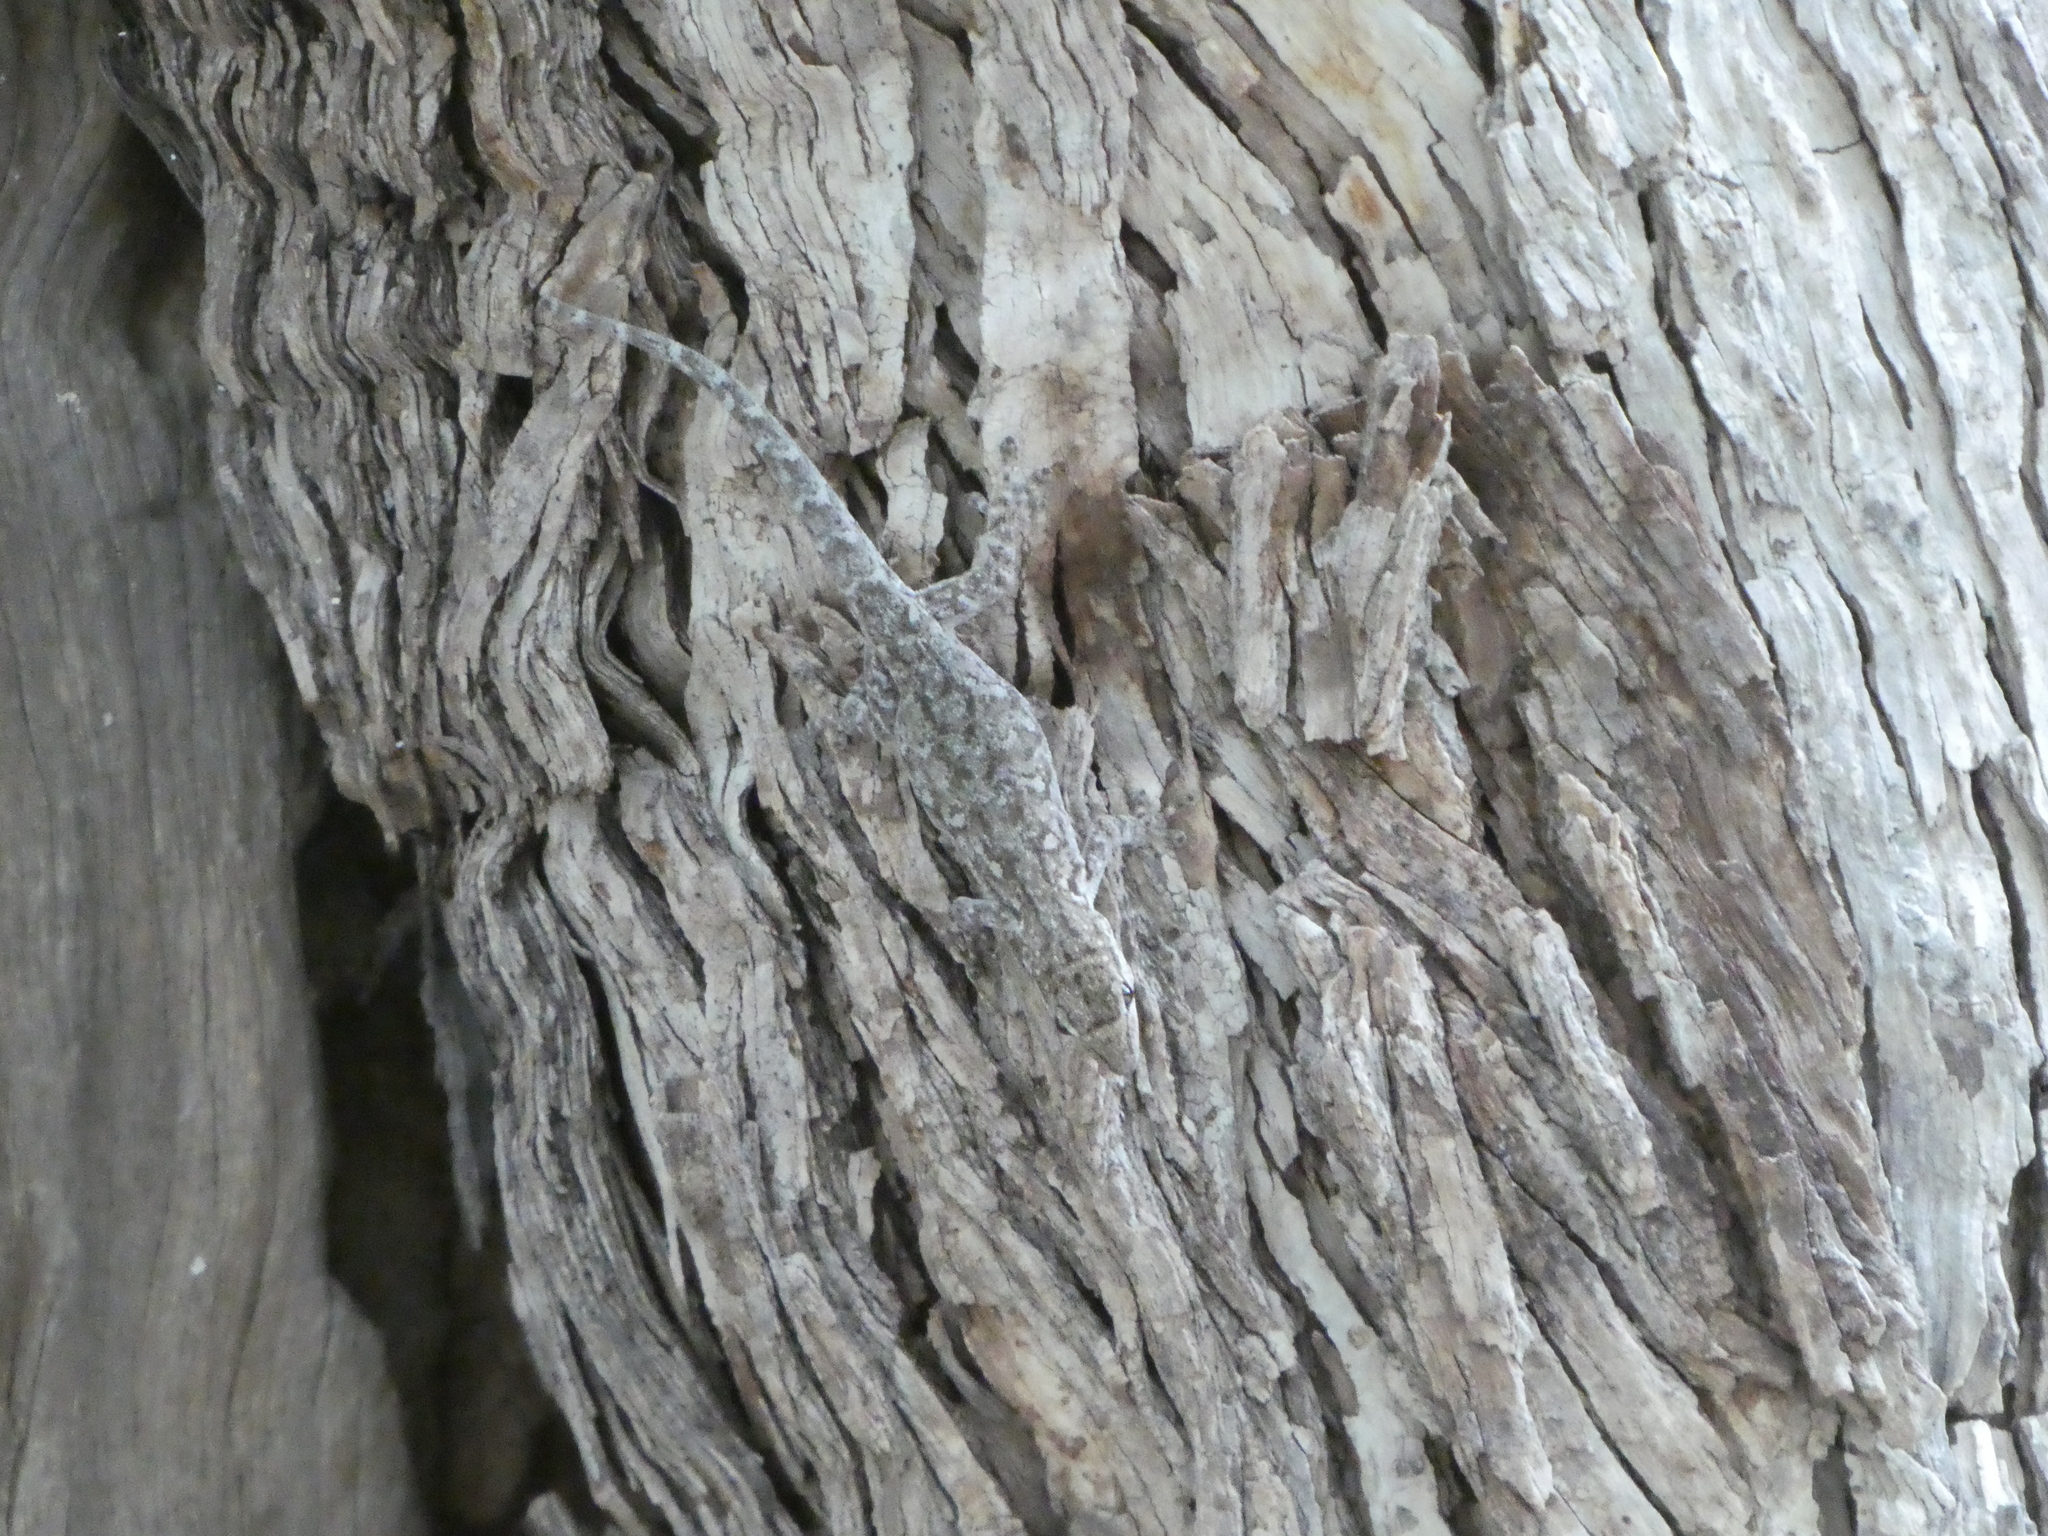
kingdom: Animalia
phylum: Chordata
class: Squamata
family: Gekkonidae
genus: Lygodactylus
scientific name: Lygodactylus chobiensis
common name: Okavango dwarf gecko
